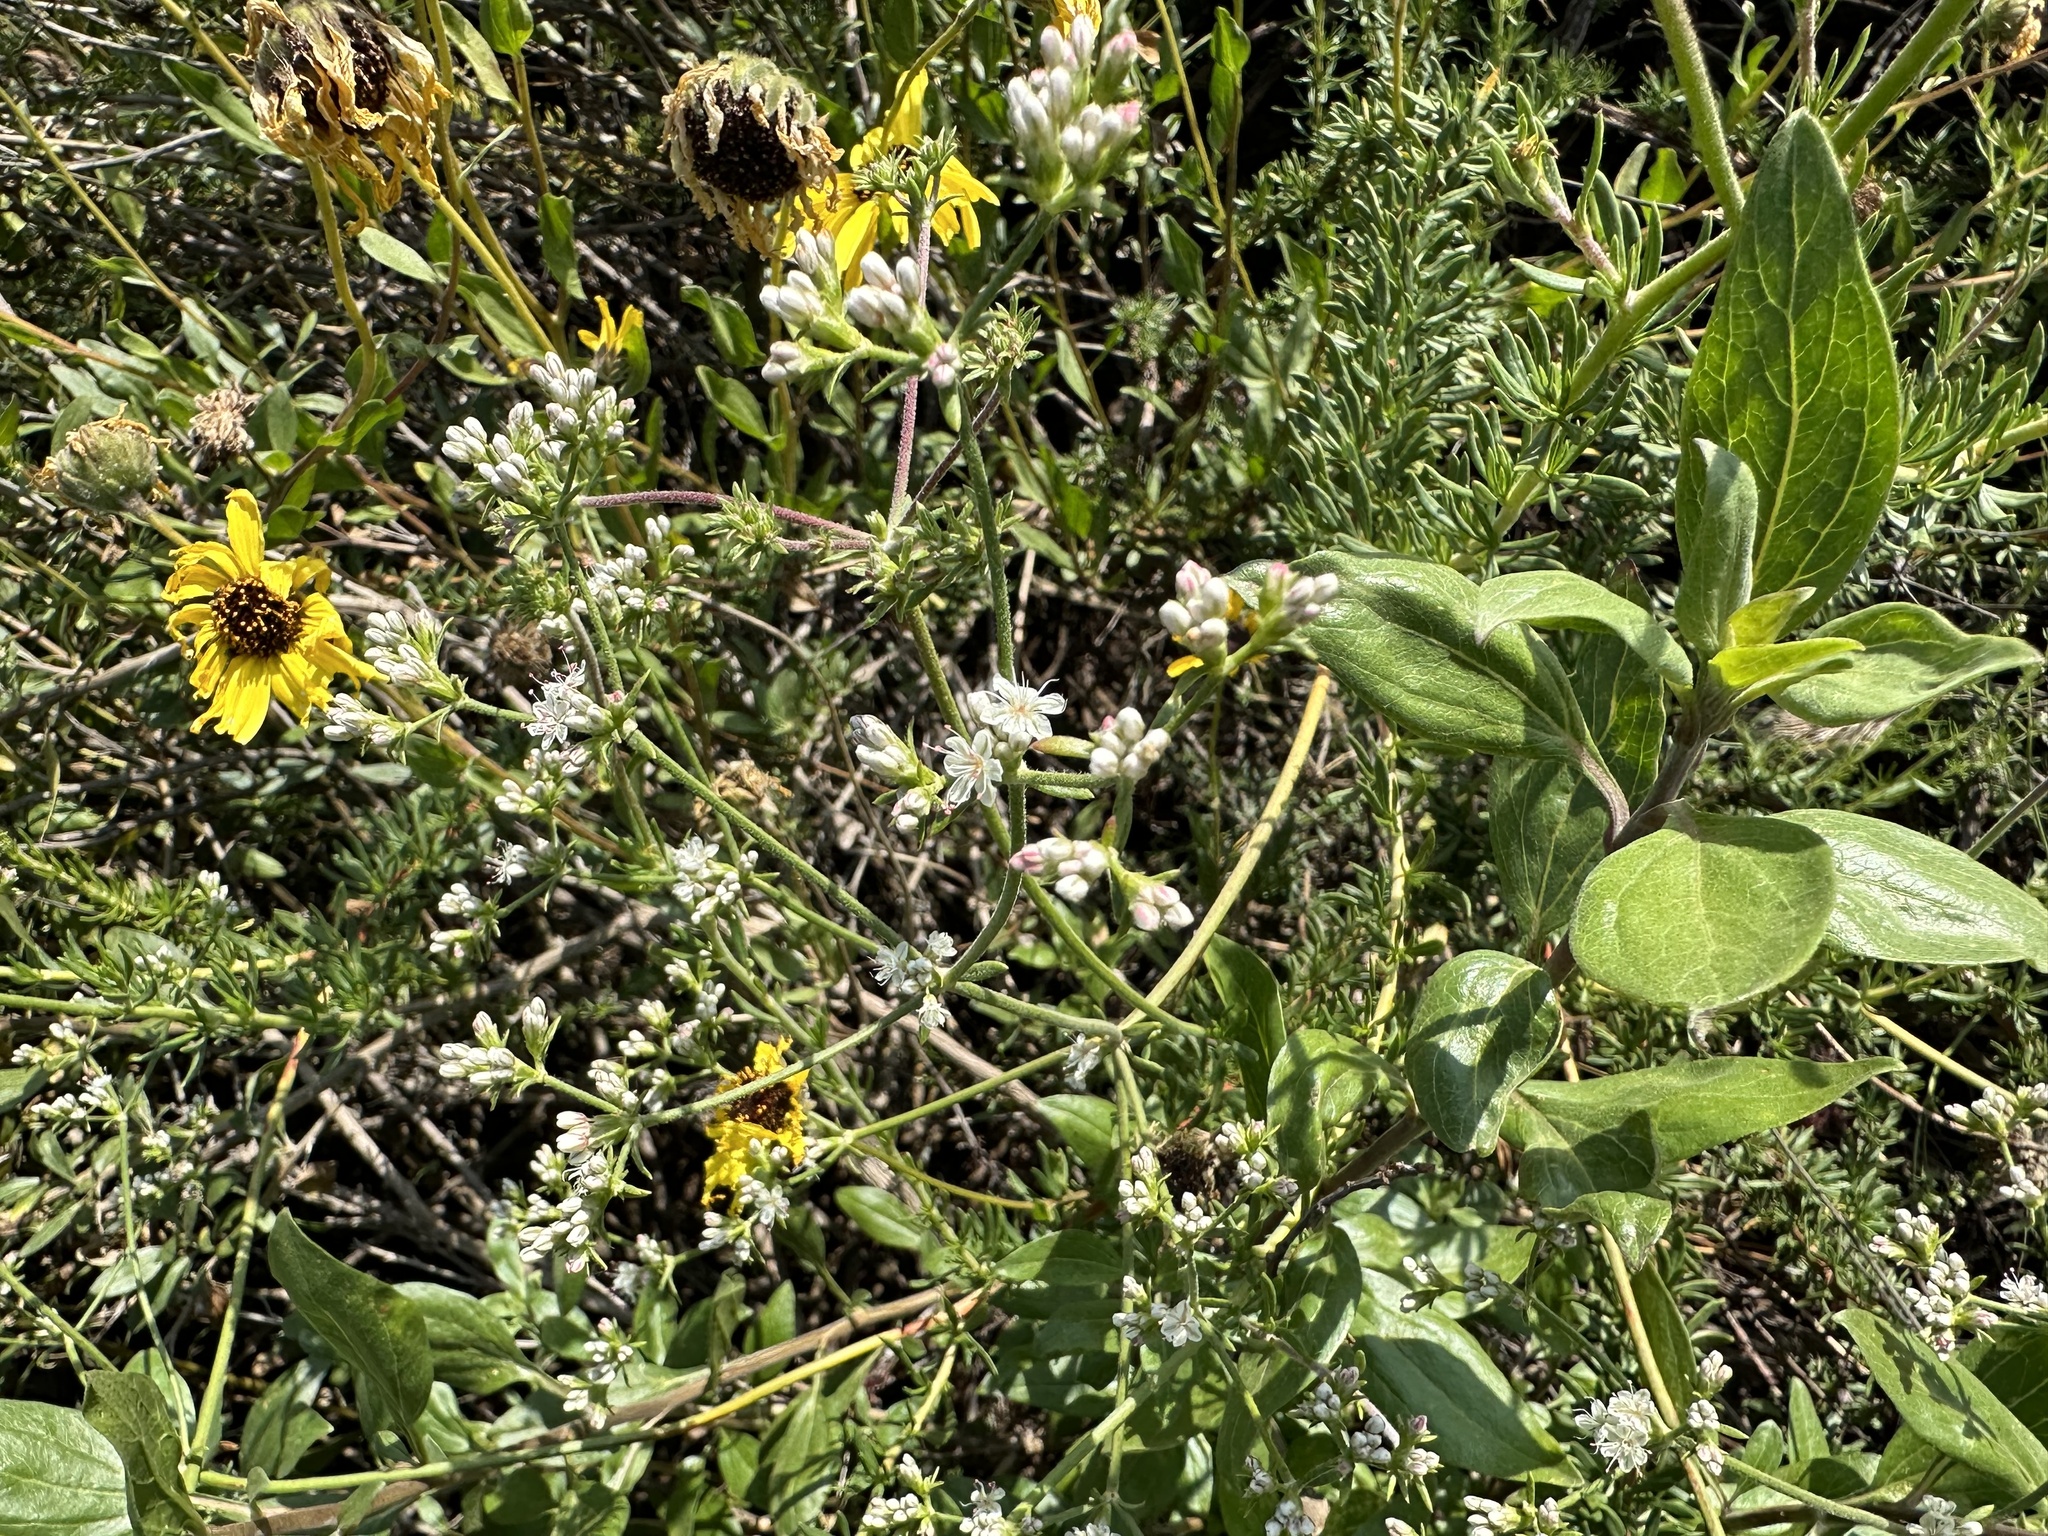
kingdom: Plantae
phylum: Tracheophyta
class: Magnoliopsida
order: Caryophyllales
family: Polygonaceae
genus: Eriogonum
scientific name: Eriogonum fasciculatum
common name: California wild buckwheat
